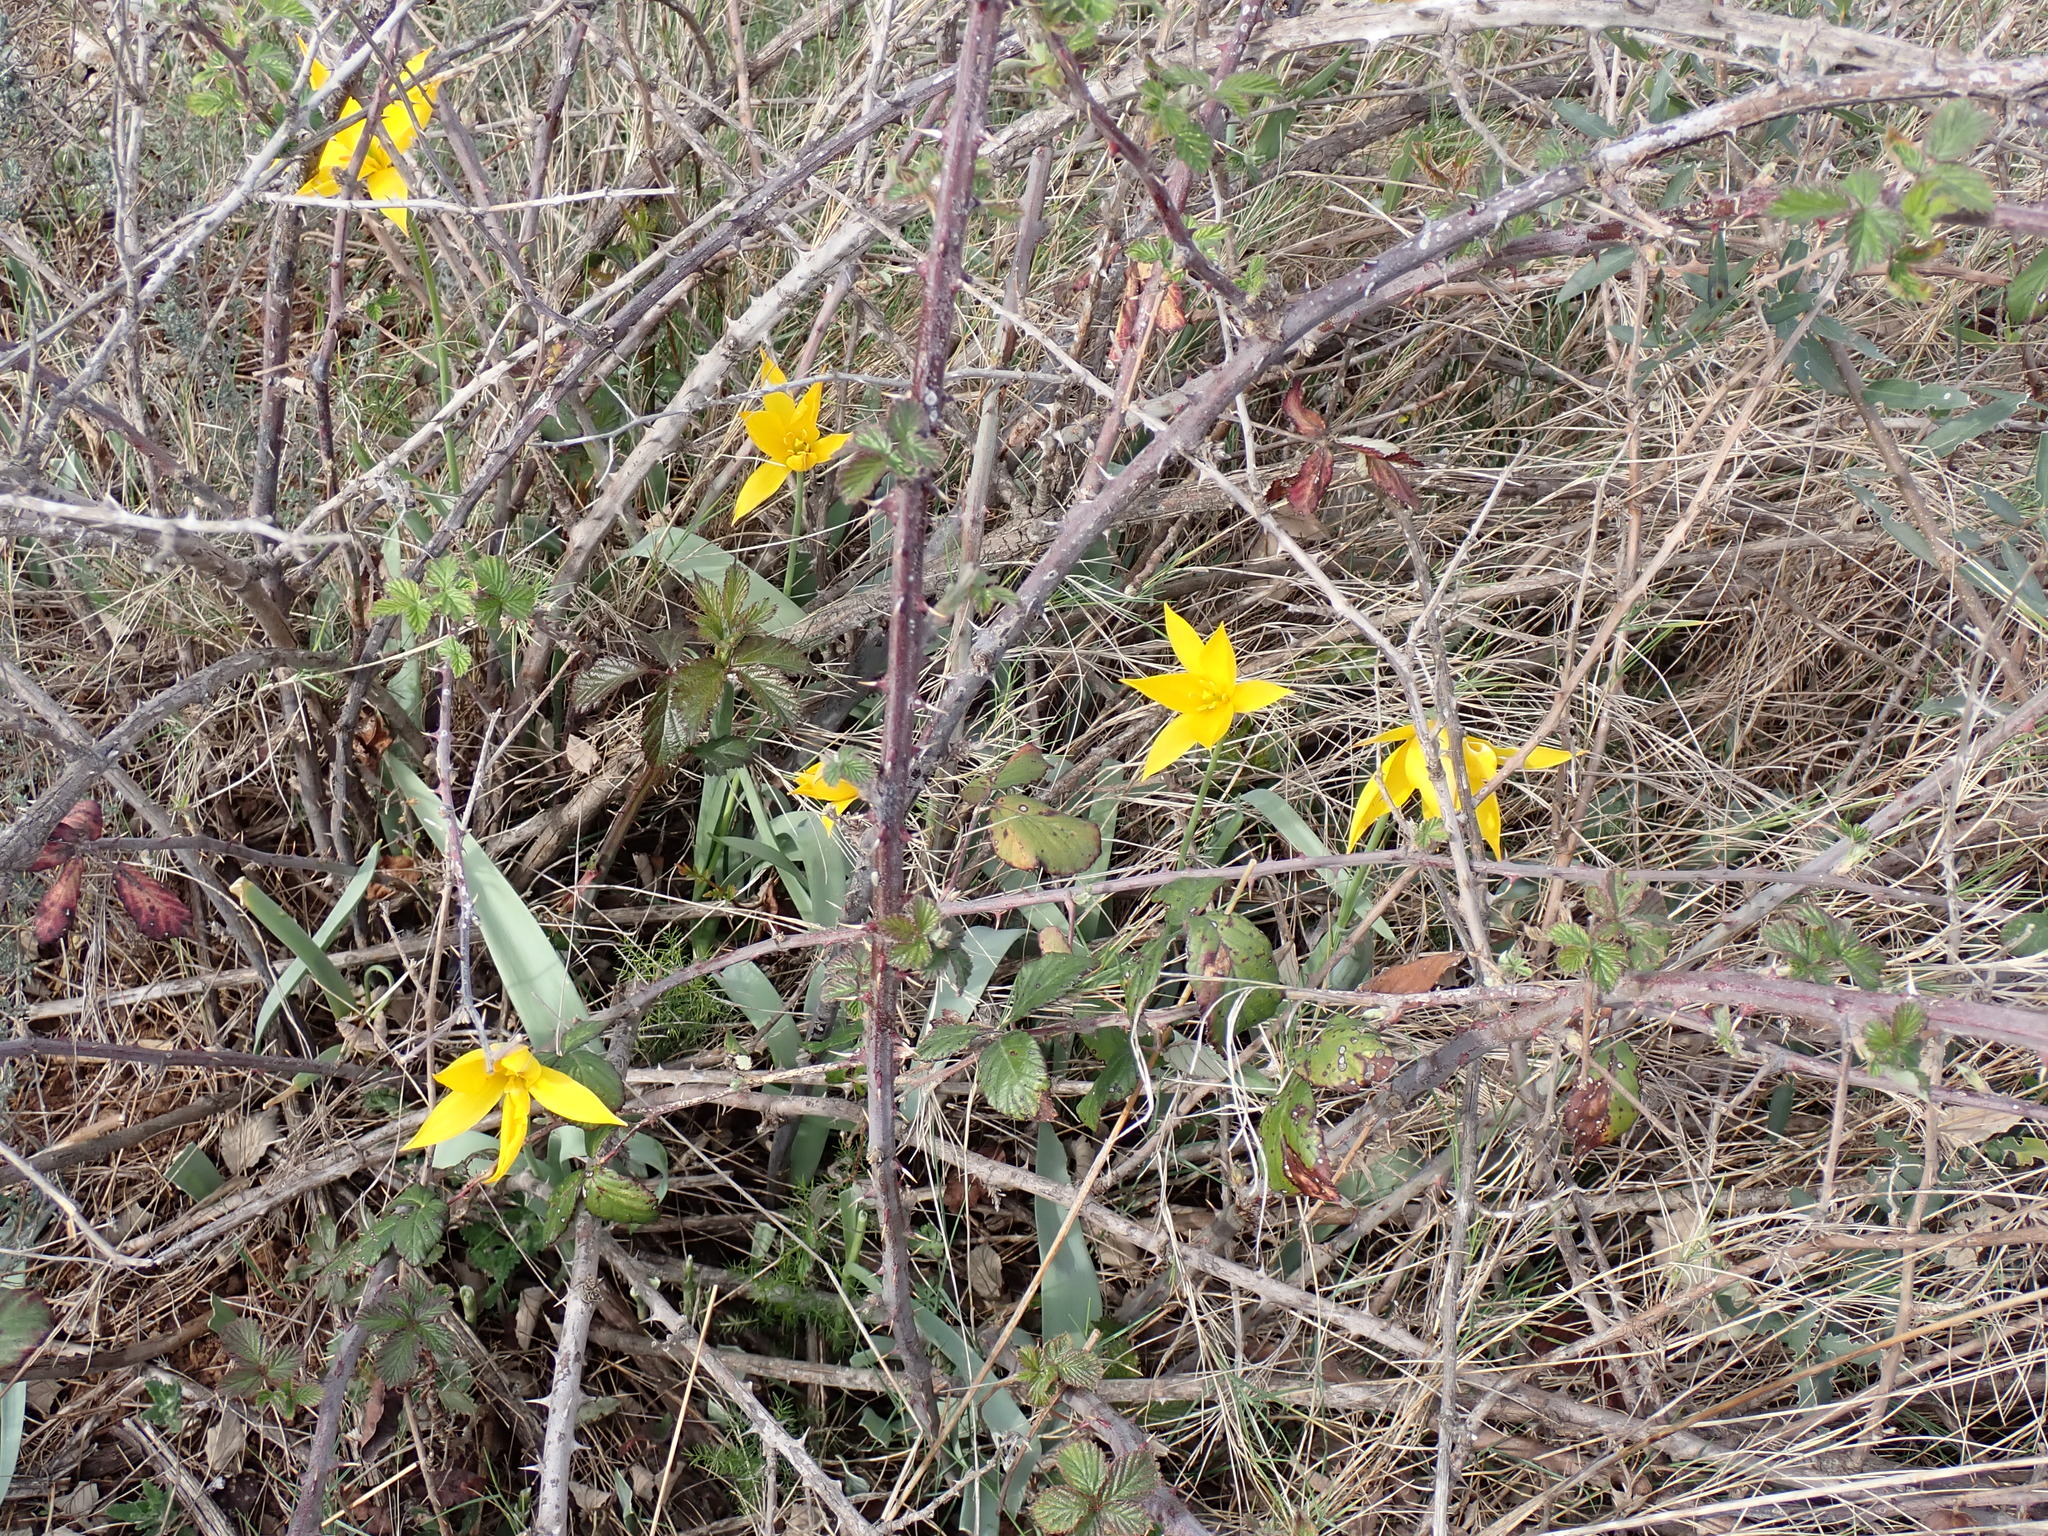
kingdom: Plantae
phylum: Tracheophyta
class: Liliopsida
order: Liliales
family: Liliaceae
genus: Tulipa
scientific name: Tulipa sylvestris
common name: Wild tulip
